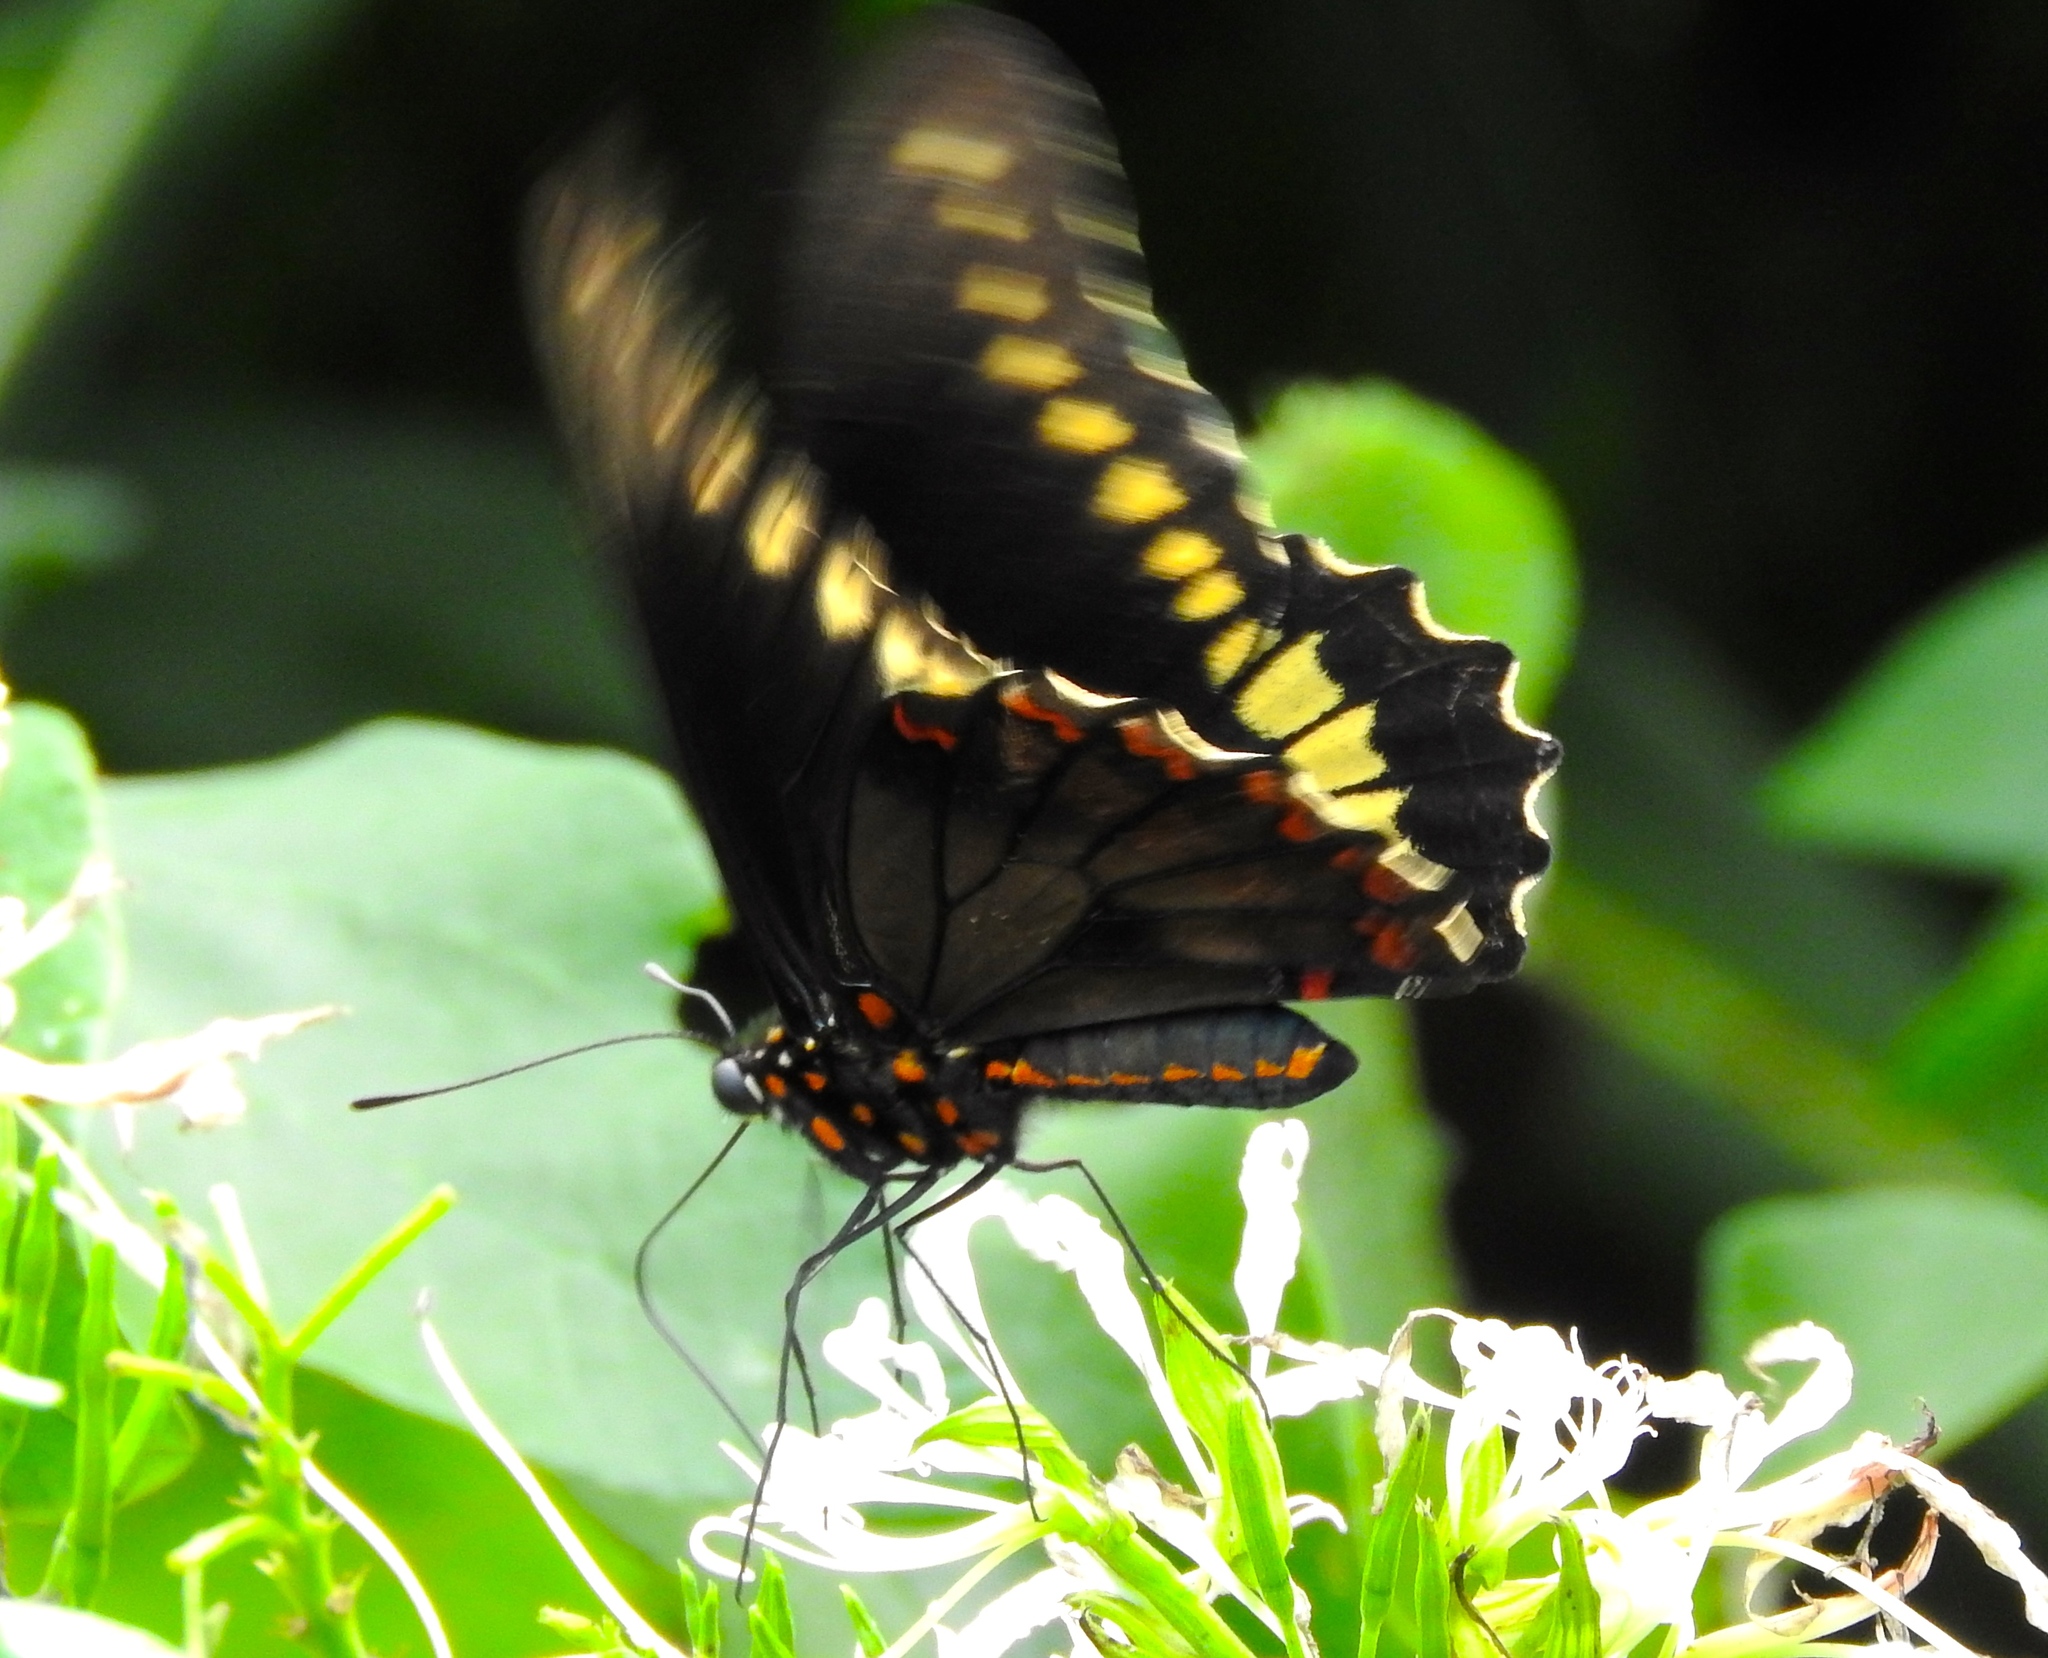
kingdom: Animalia
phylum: Arthropoda
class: Insecta
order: Lepidoptera
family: Papilionidae
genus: Battus
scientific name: Battus polydamas
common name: Polydamas swallowtail
